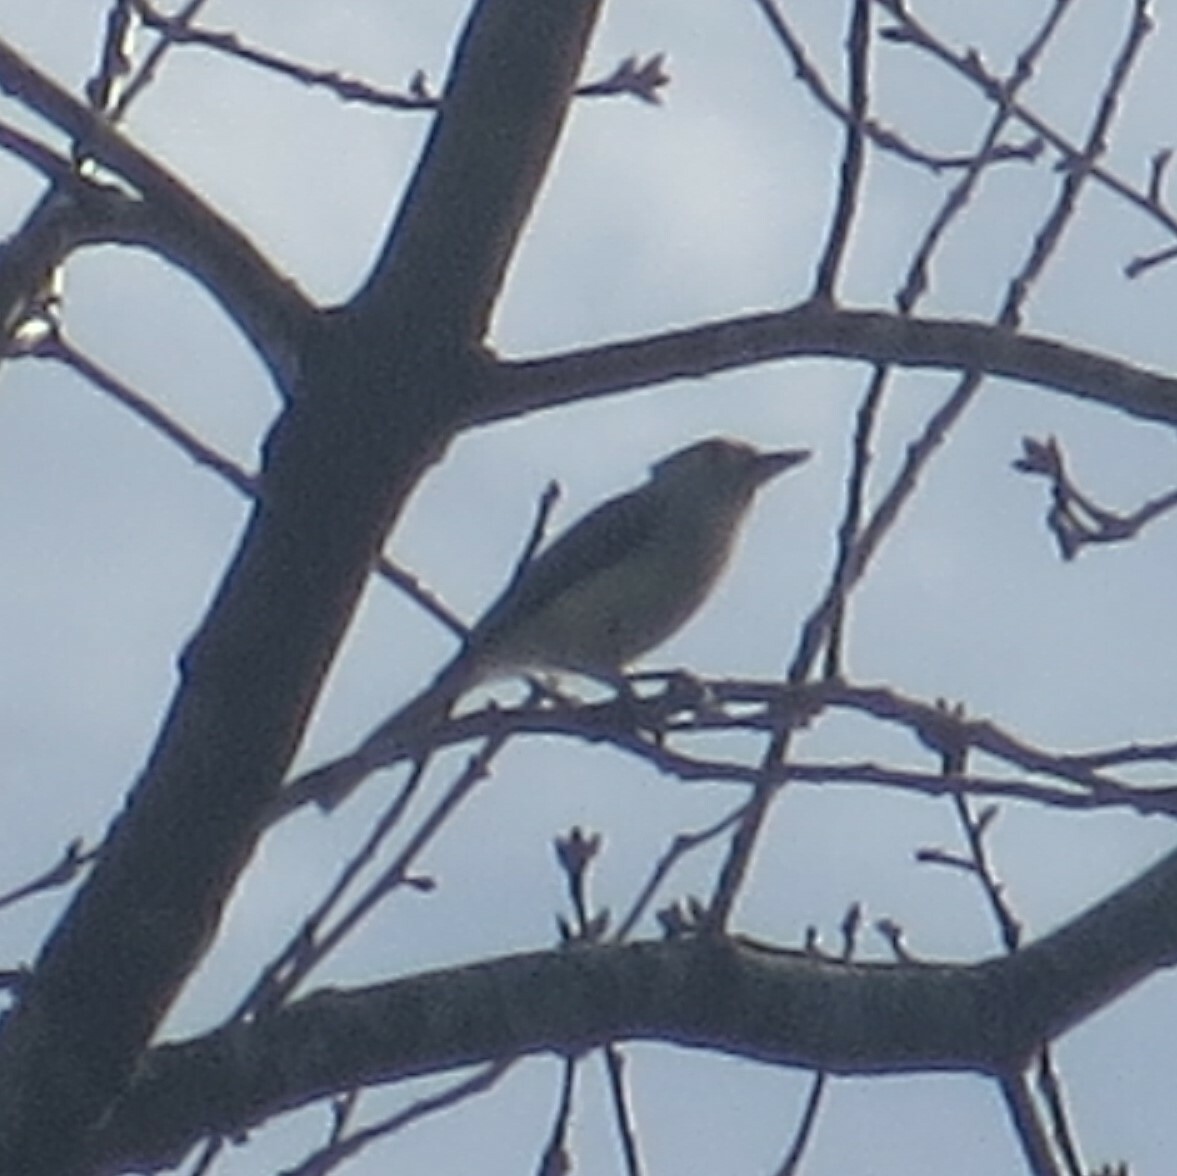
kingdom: Animalia
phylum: Chordata
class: Aves
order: Passeriformes
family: Paridae
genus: Baeolophus
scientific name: Baeolophus bicolor
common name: Tufted titmouse
